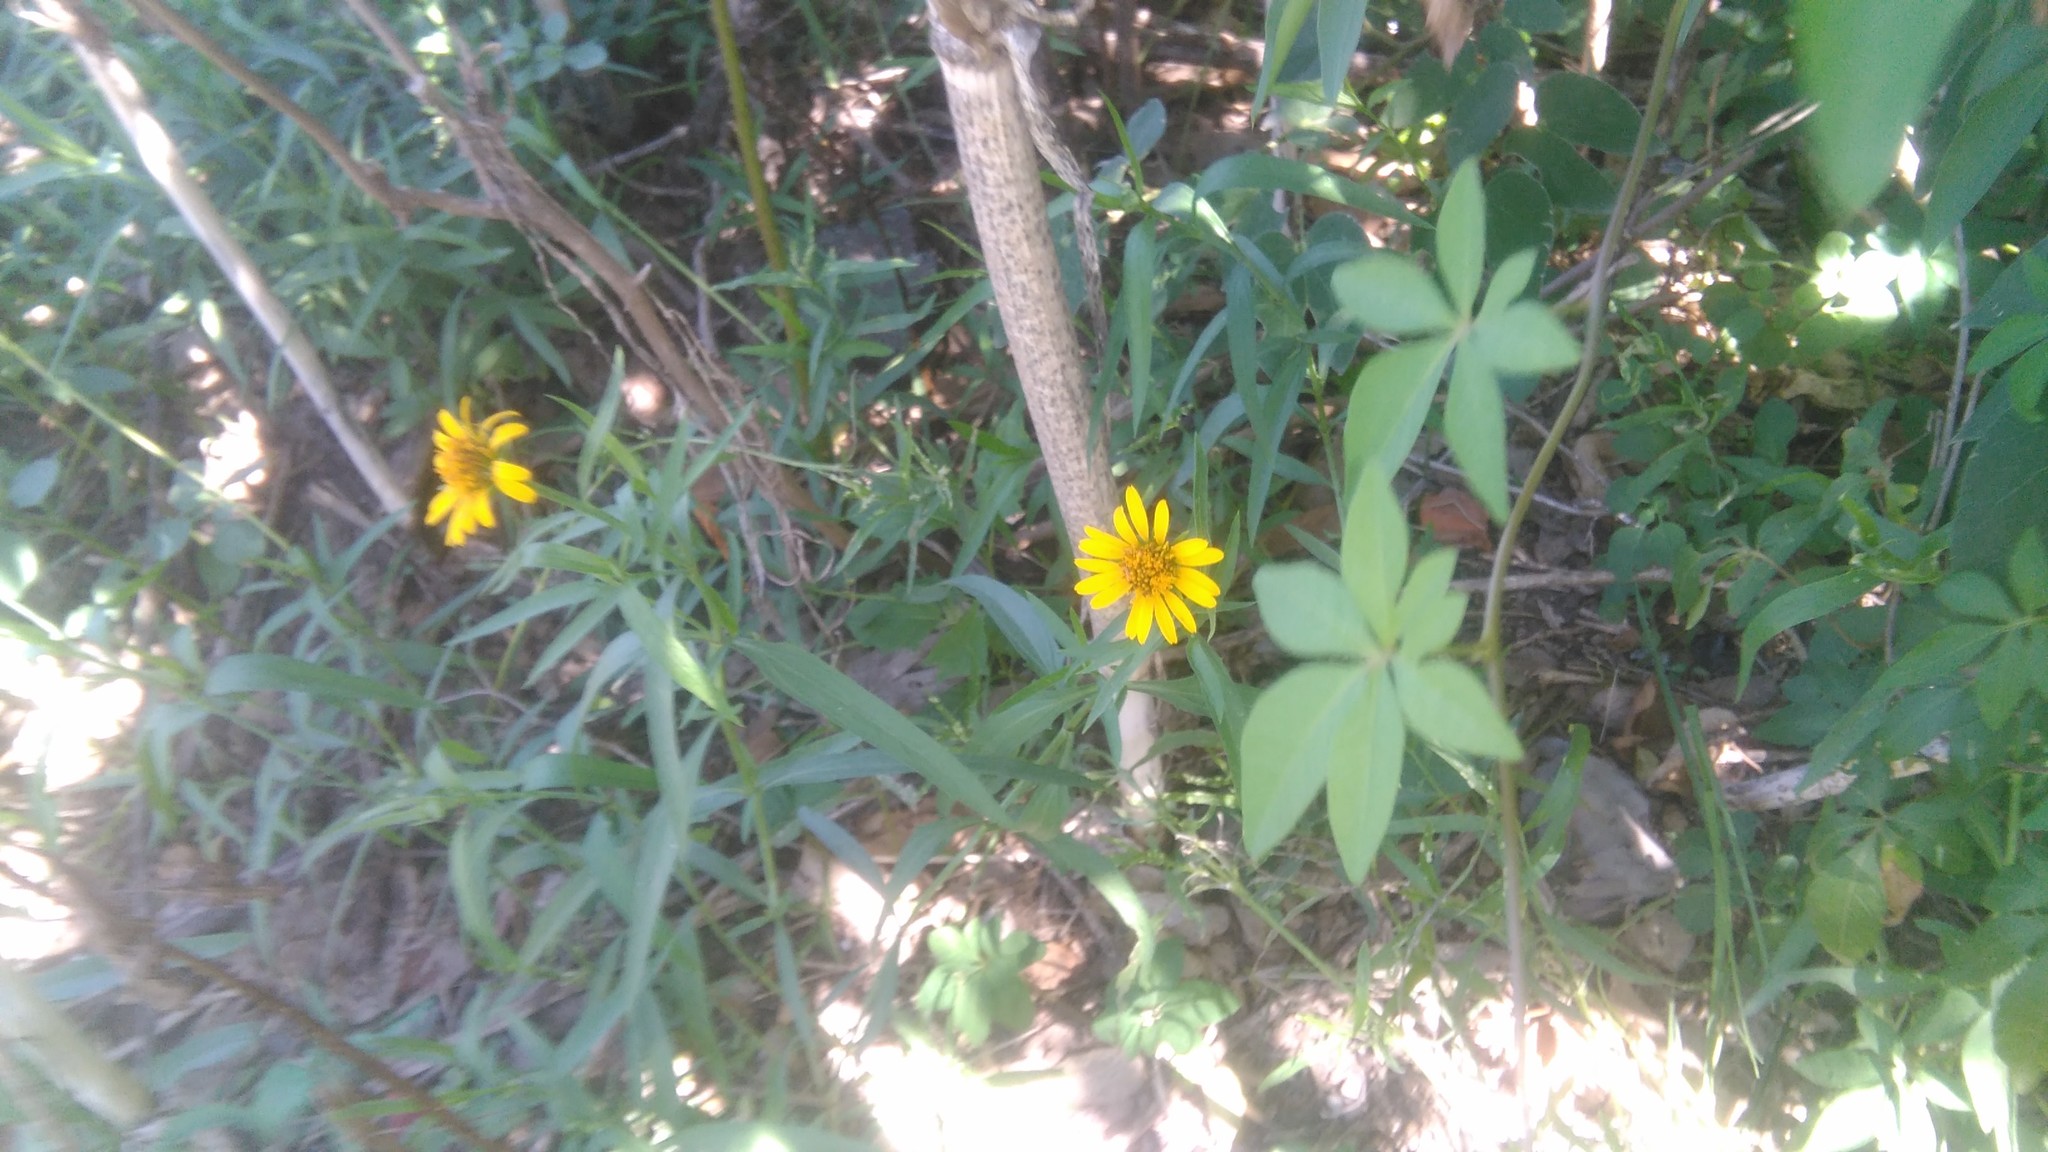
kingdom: Plantae
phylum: Tracheophyta
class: Magnoliopsida
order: Asterales
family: Asteraceae
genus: Pascalia
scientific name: Pascalia glauca
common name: Beach creeping oxeye
